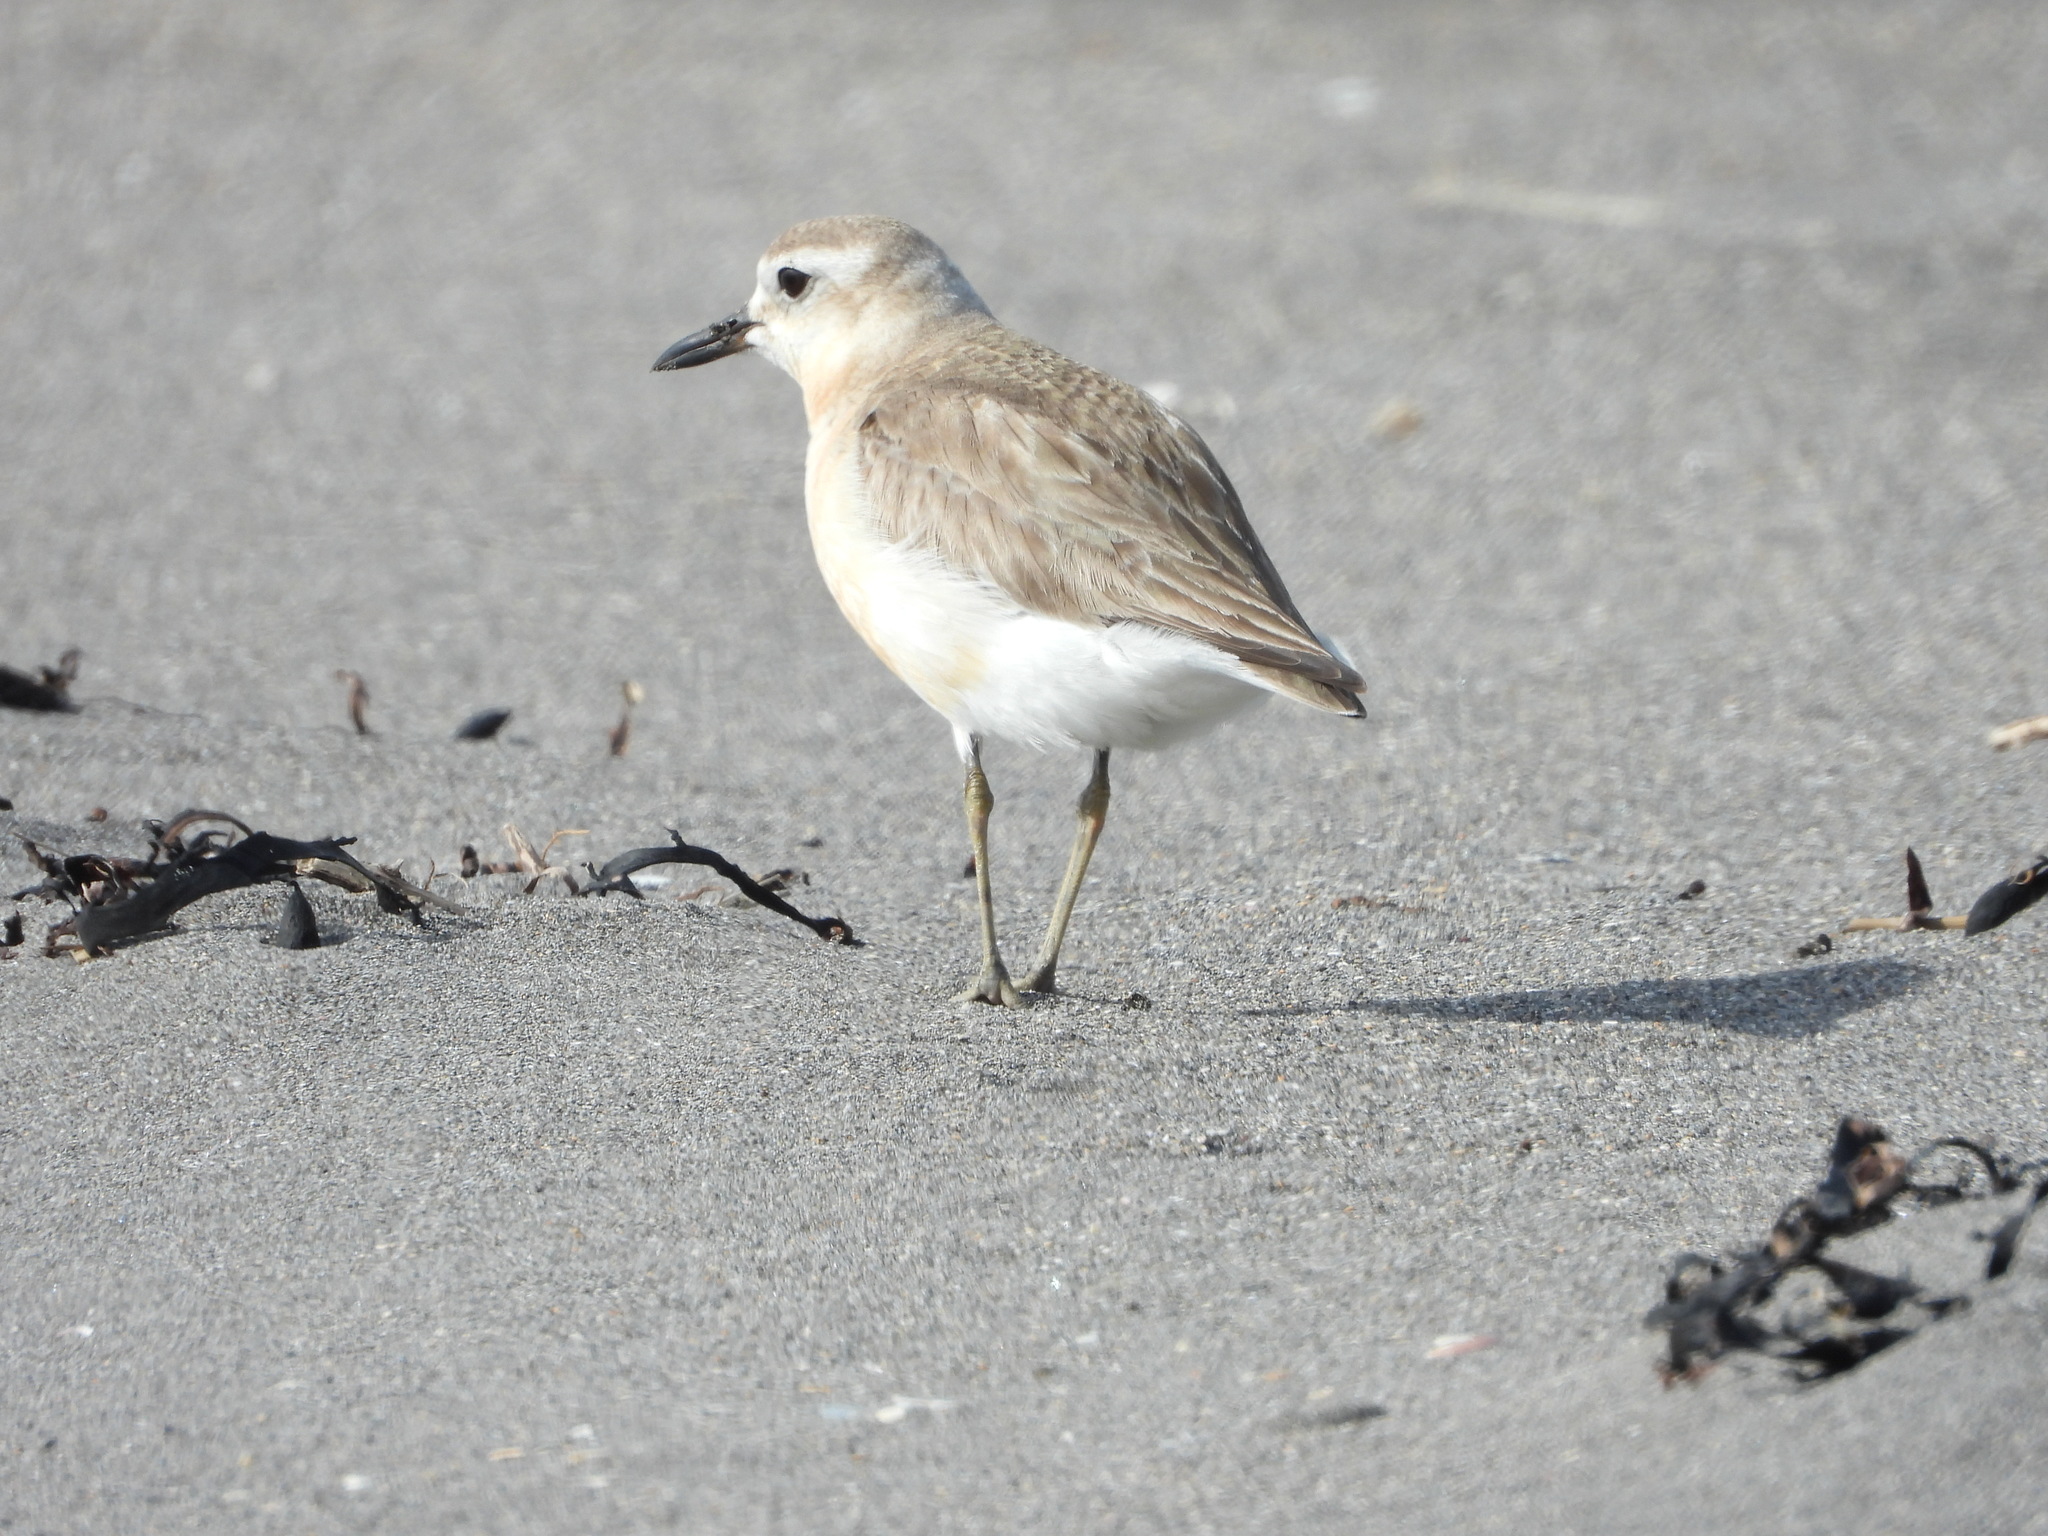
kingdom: Animalia
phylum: Chordata
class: Aves
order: Charadriiformes
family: Charadriidae
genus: Anarhynchus
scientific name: Anarhynchus
